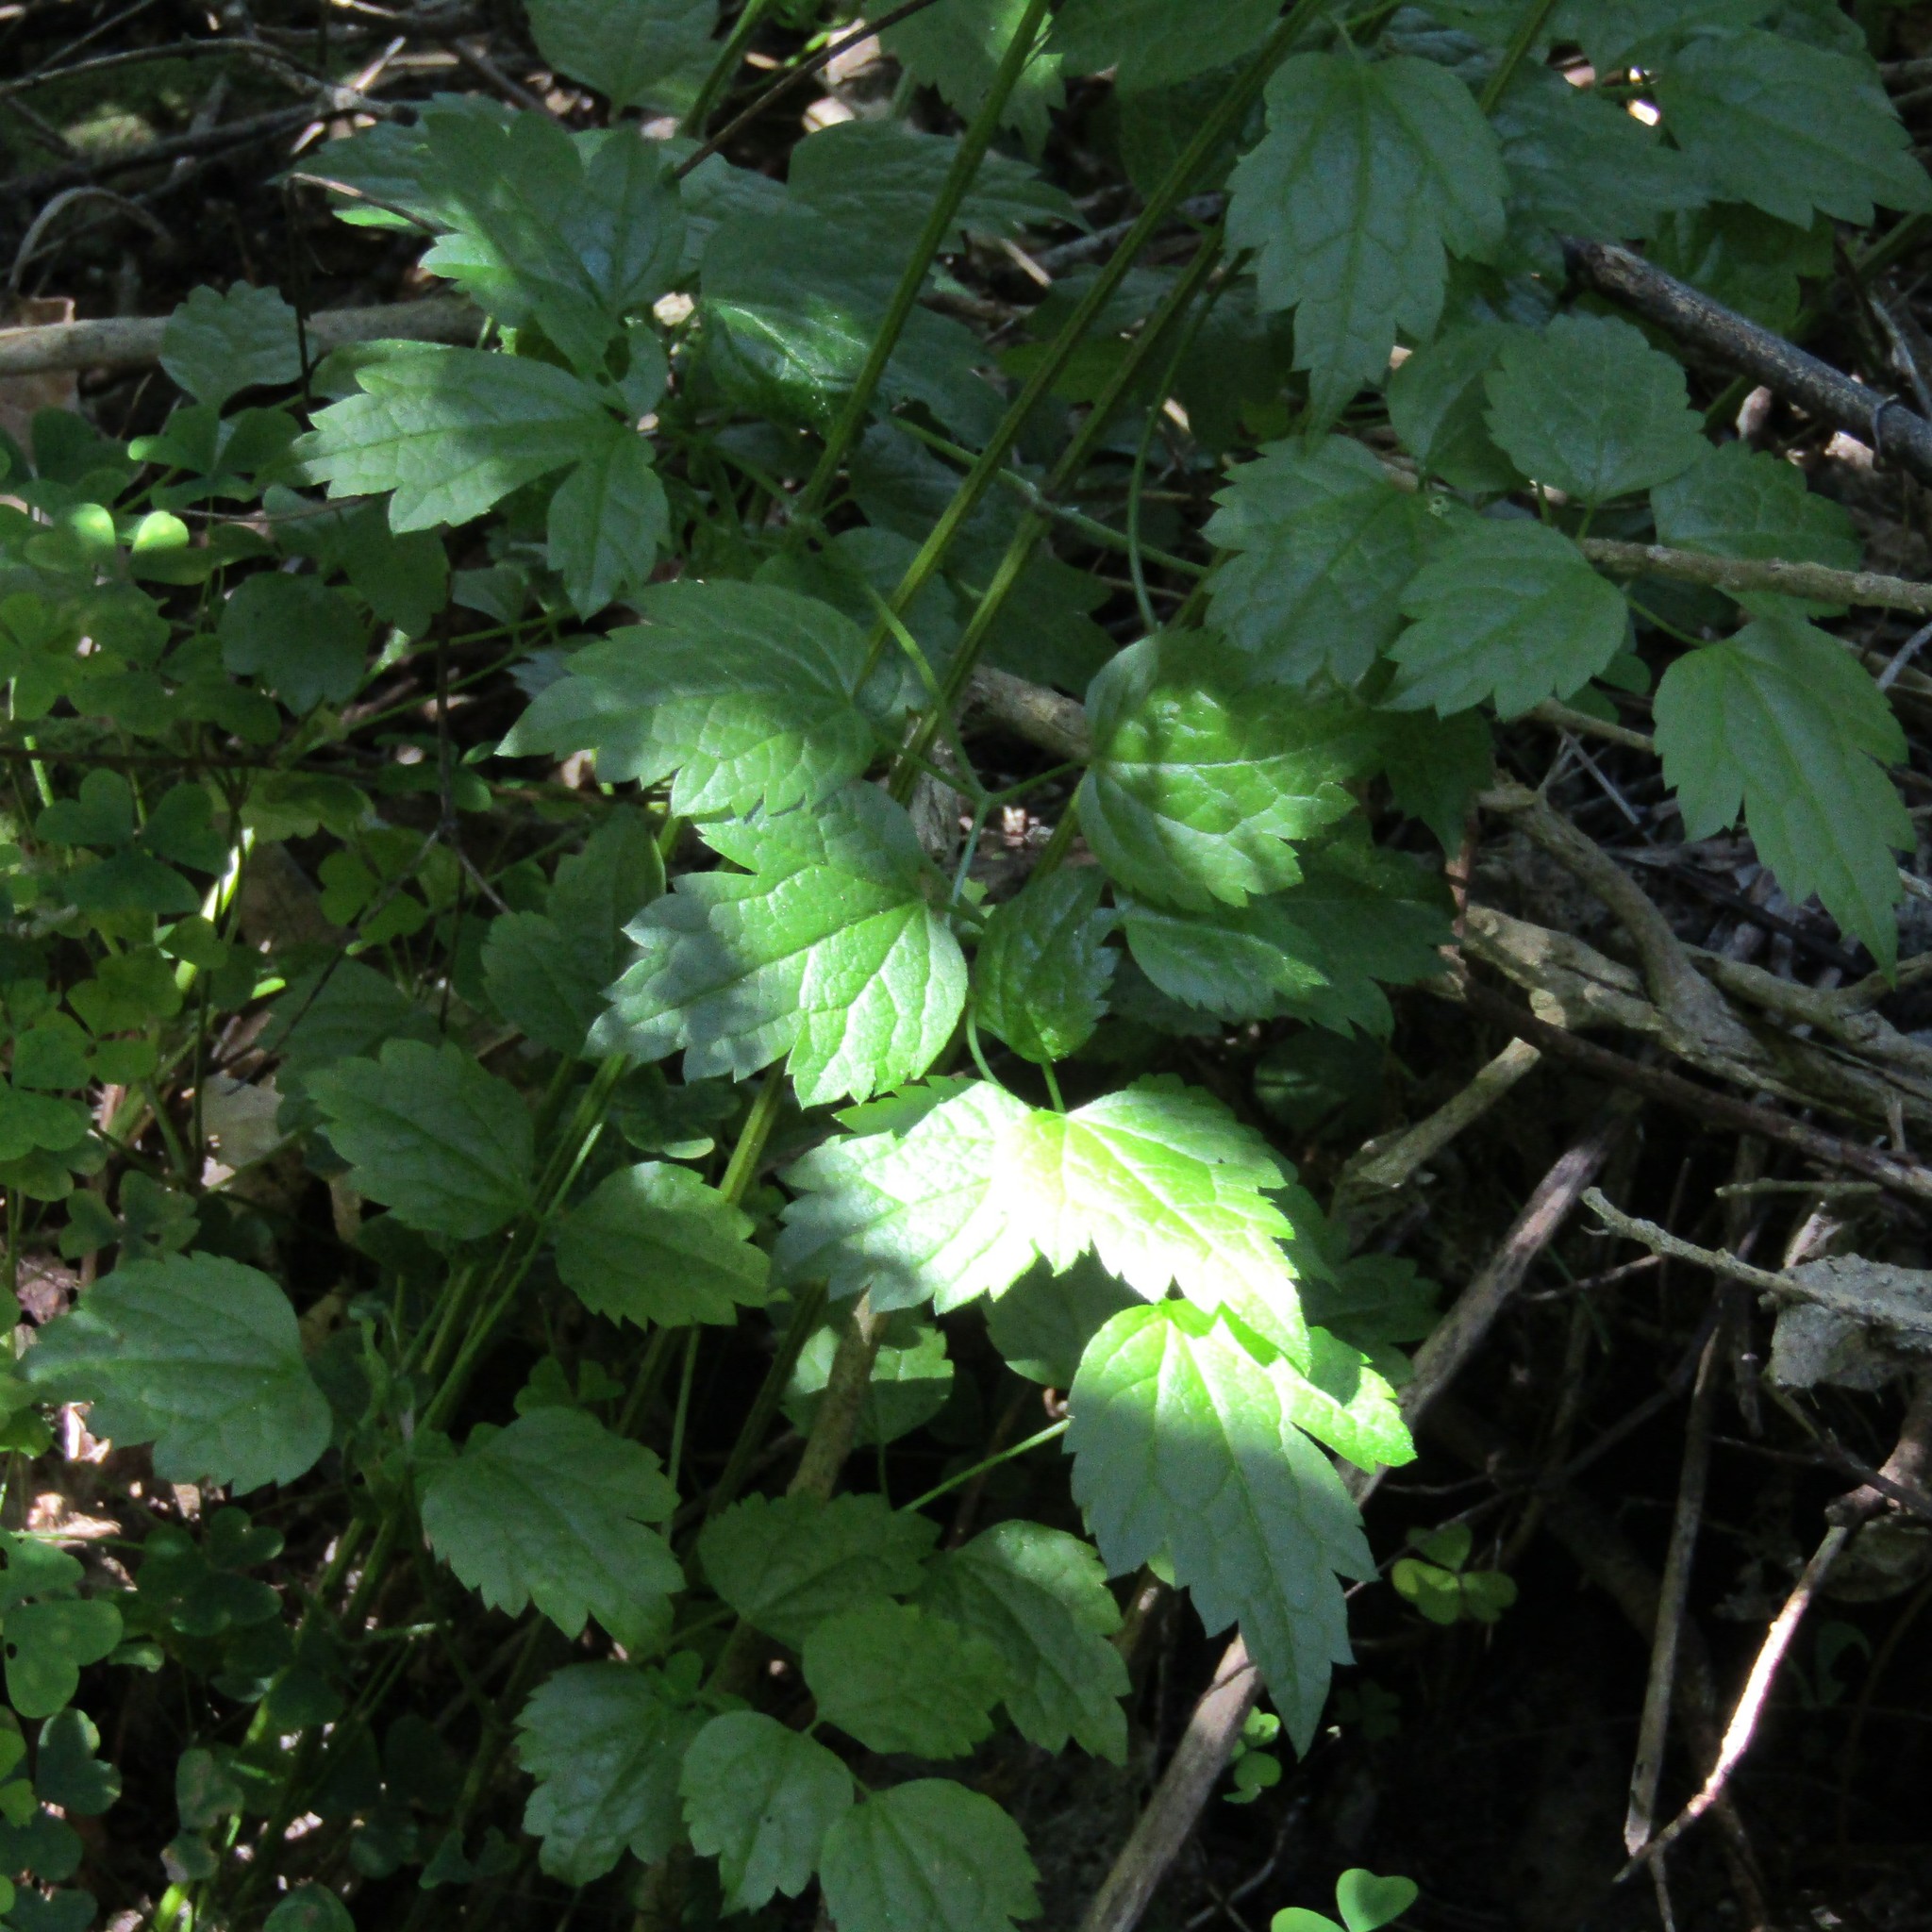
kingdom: Plantae
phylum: Tracheophyta
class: Magnoliopsida
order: Ranunculales
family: Ranunculaceae
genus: Clematis
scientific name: Clematis vitalba
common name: Evergreen clematis
